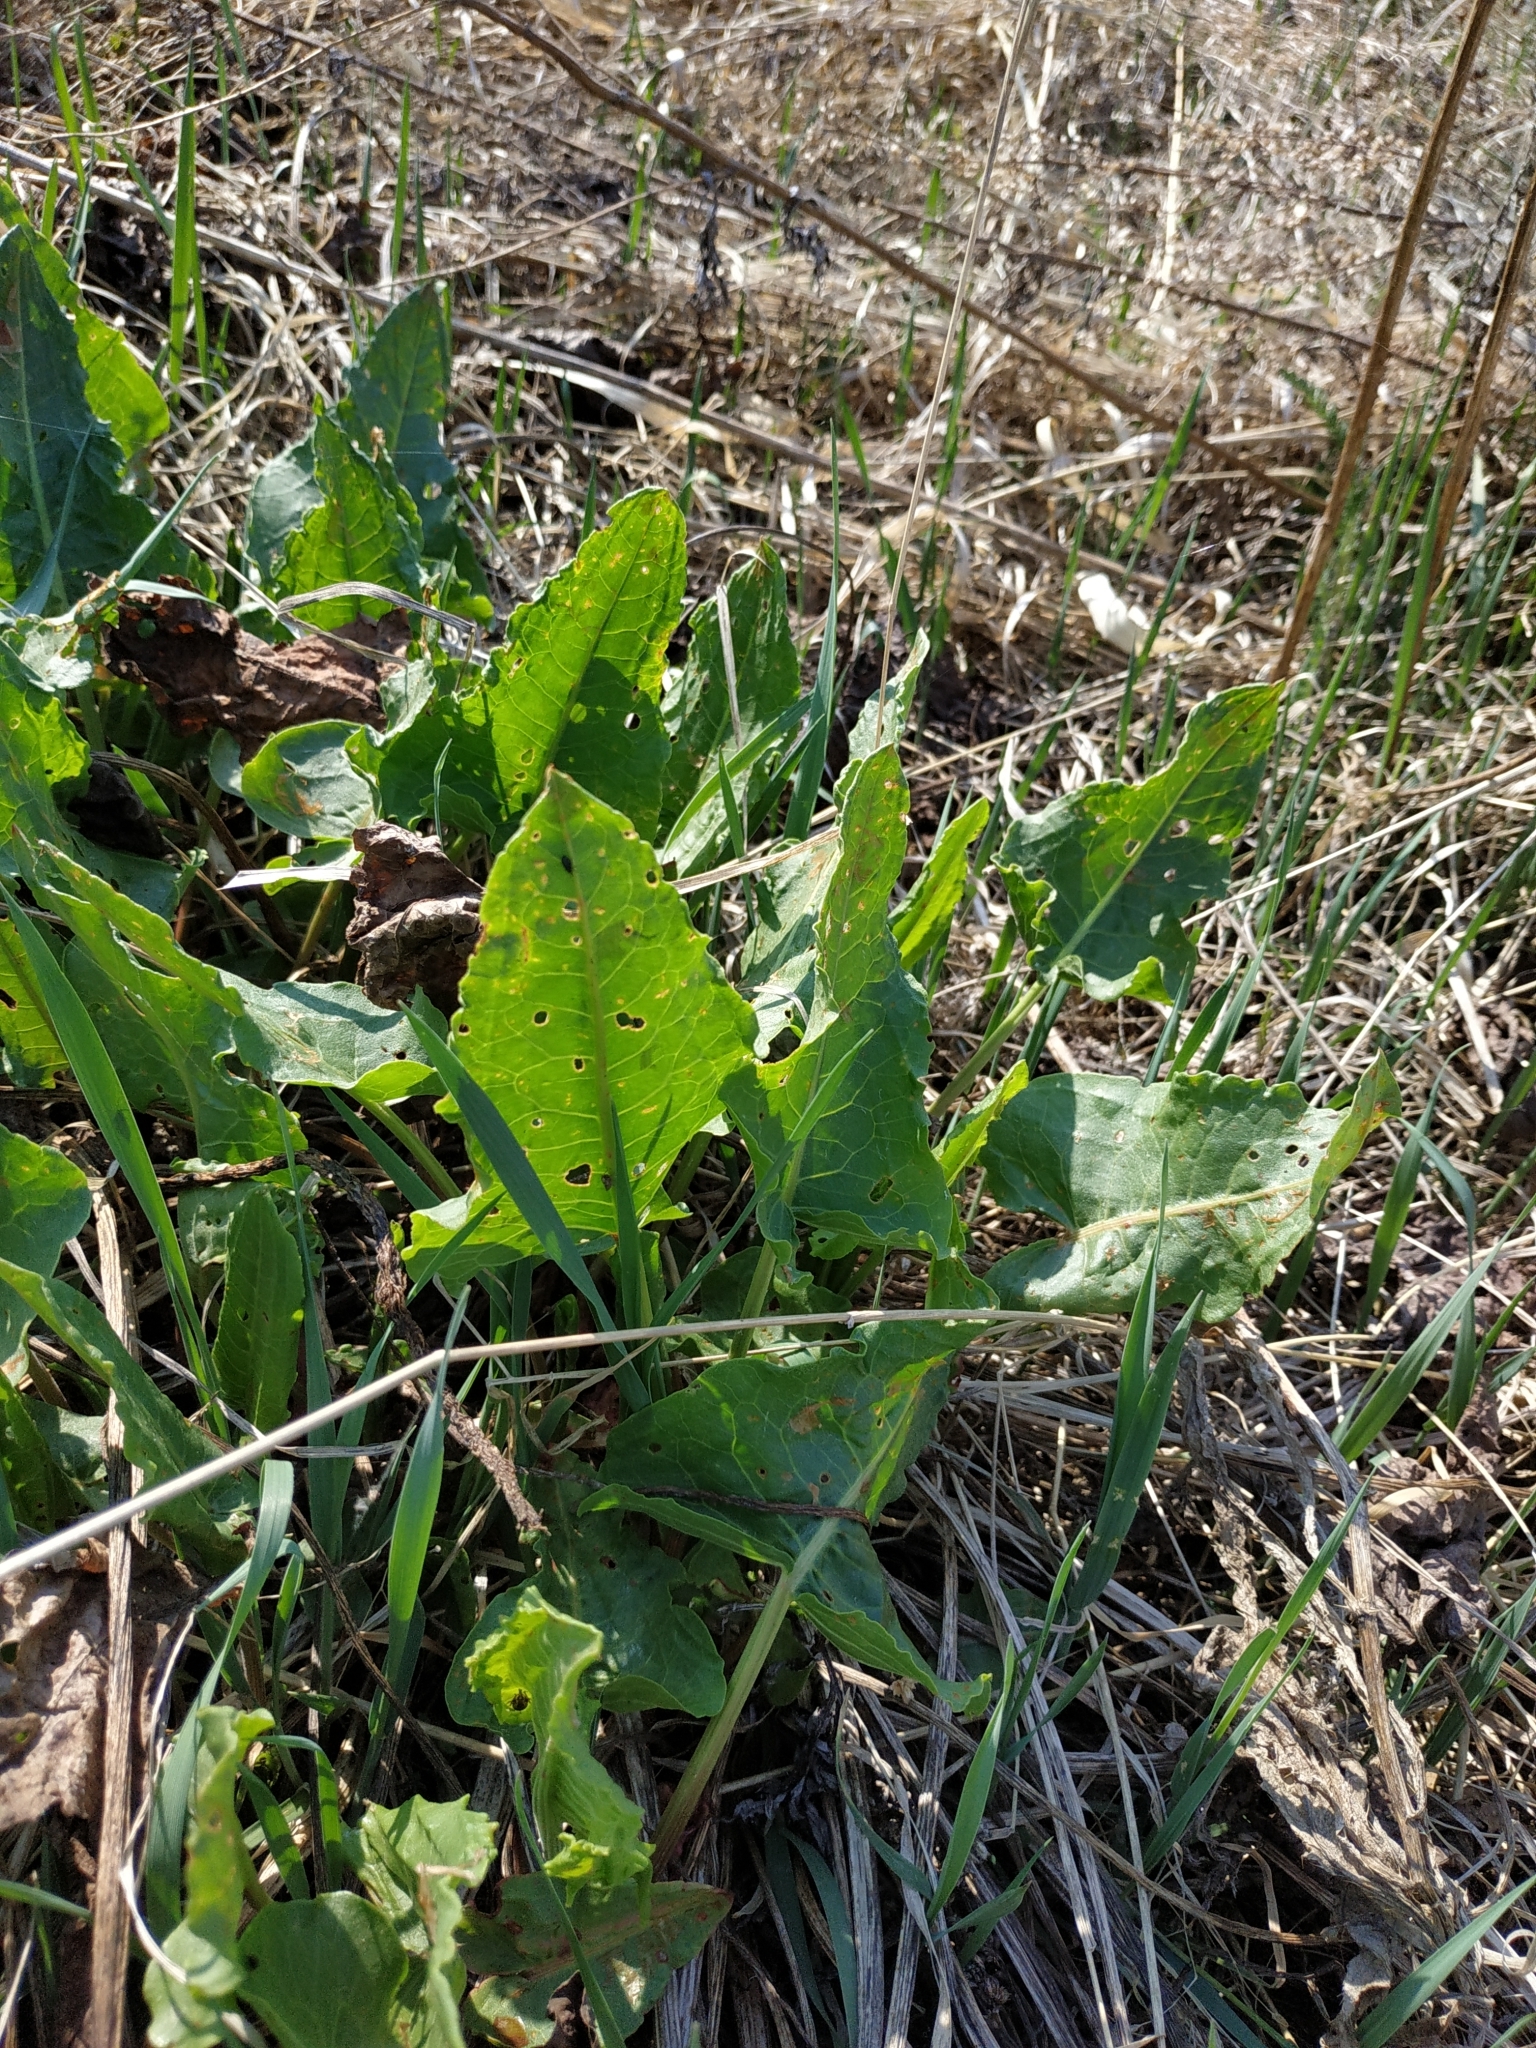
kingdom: Plantae
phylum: Tracheophyta
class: Magnoliopsida
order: Caryophyllales
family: Polygonaceae
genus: Rumex
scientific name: Rumex confertus
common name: Russian dock
